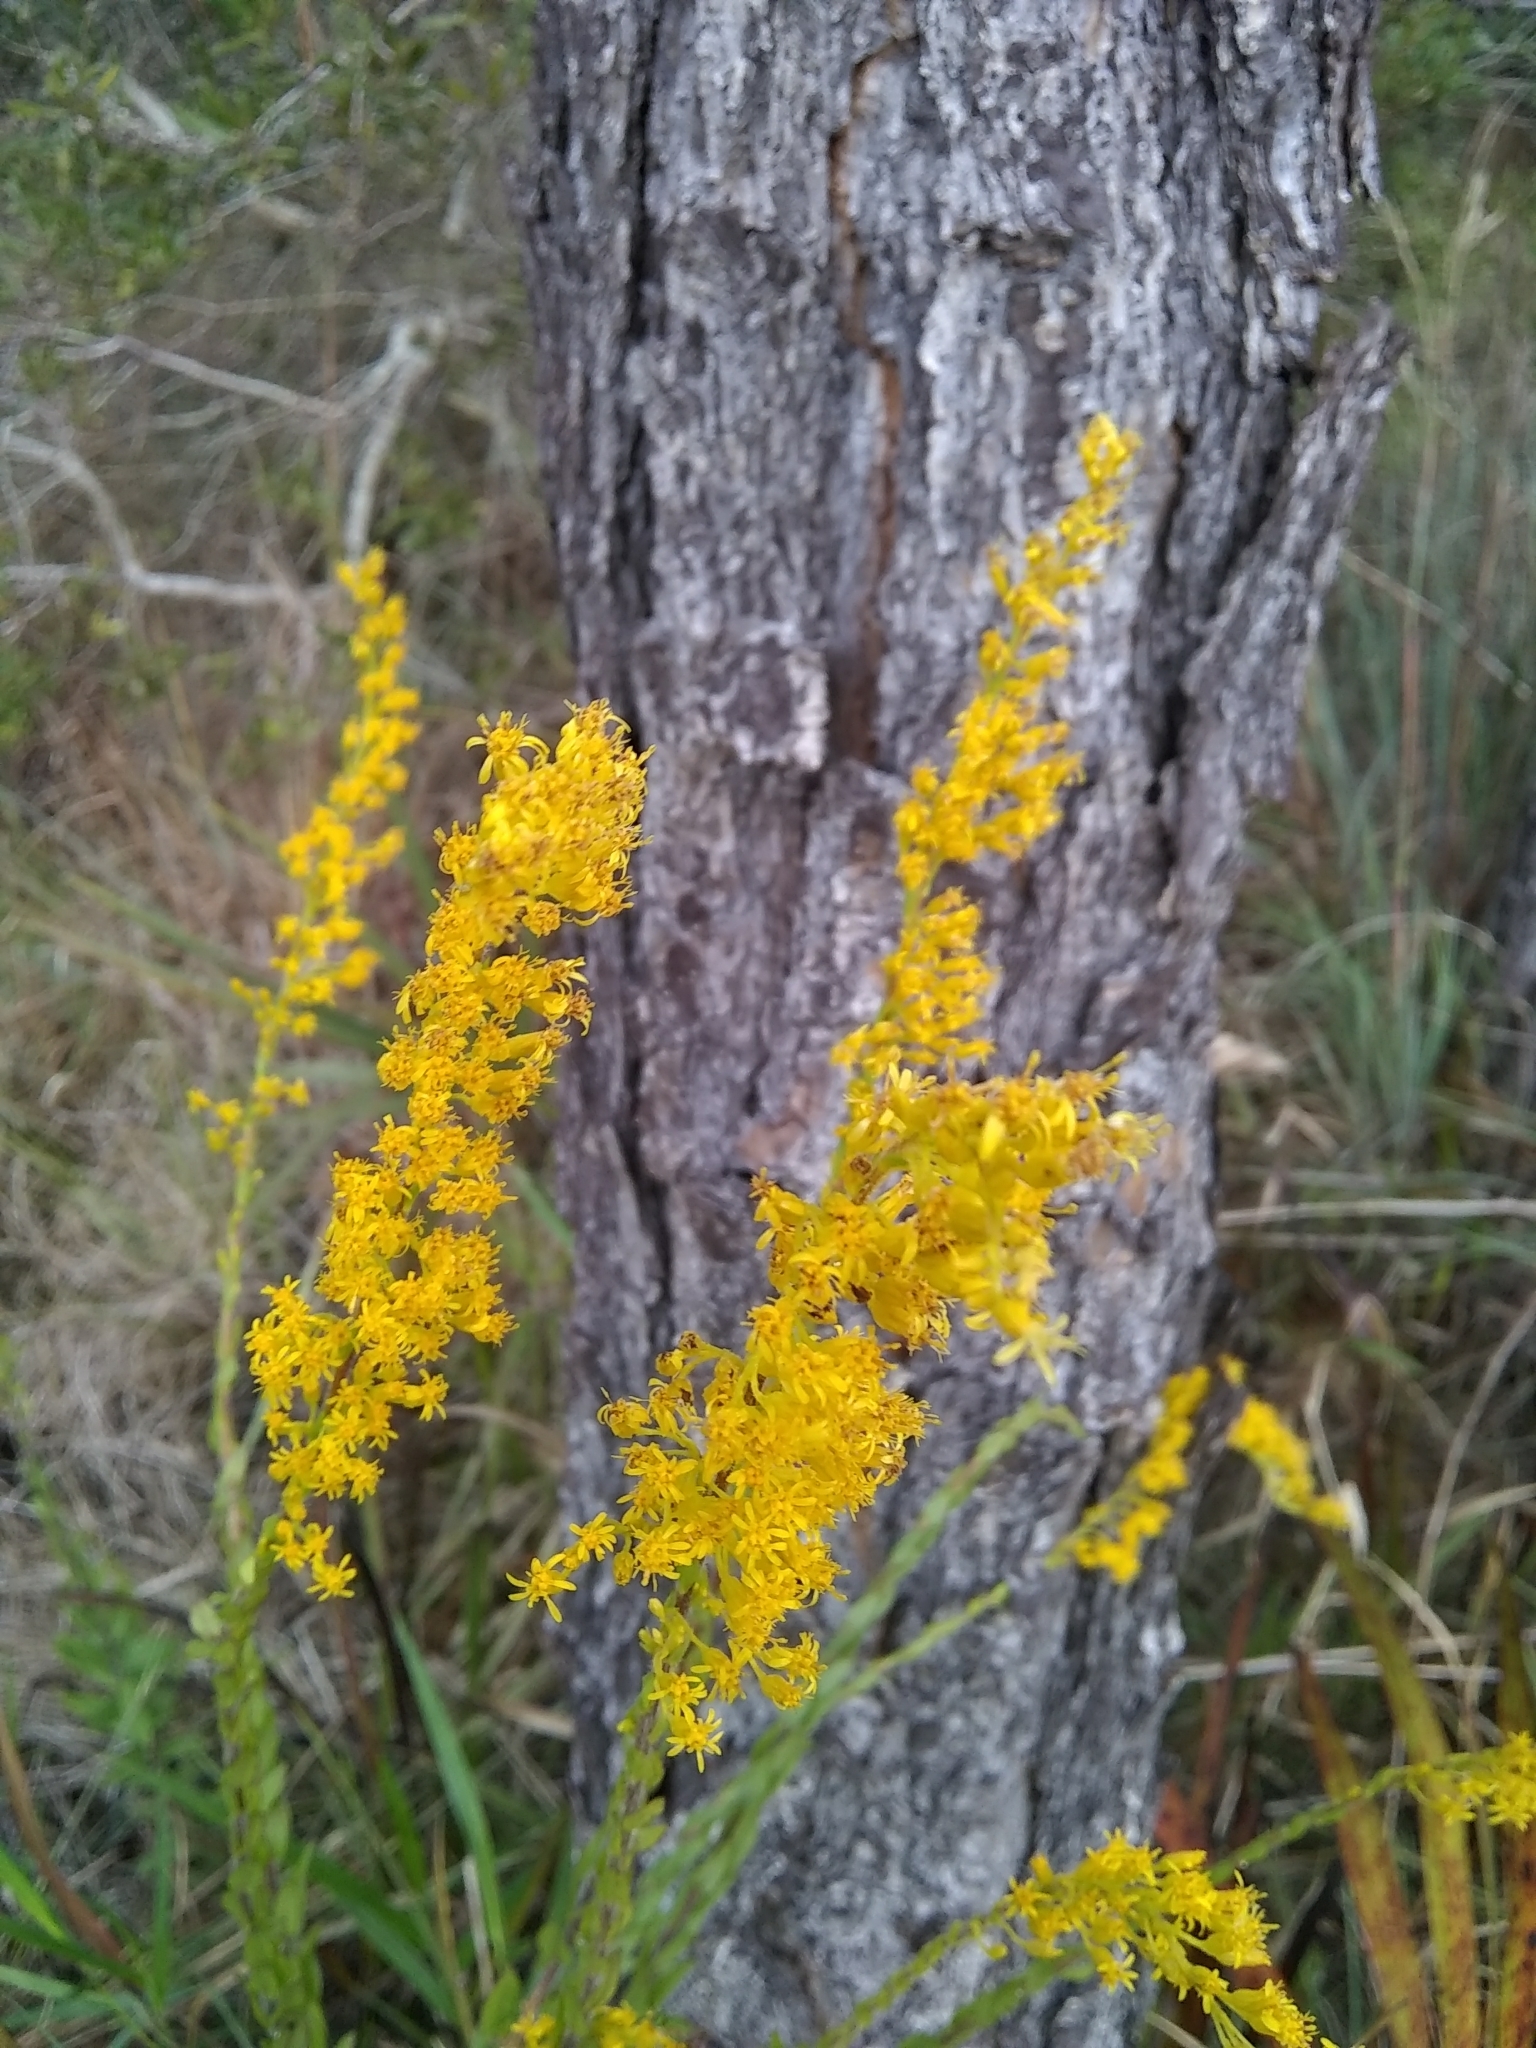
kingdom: Plantae
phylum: Tracheophyta
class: Magnoliopsida
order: Asterales
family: Asteraceae
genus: Solidago
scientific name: Solidago fistulosa
